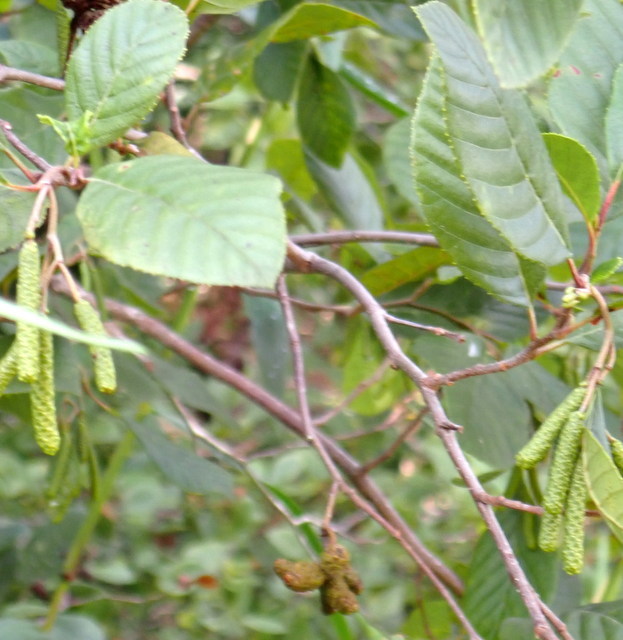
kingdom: Plantae
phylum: Tracheophyta
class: Magnoliopsida
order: Fagales
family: Betulaceae
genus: Alnus
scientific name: Alnus serrulata
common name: Hazel alder
